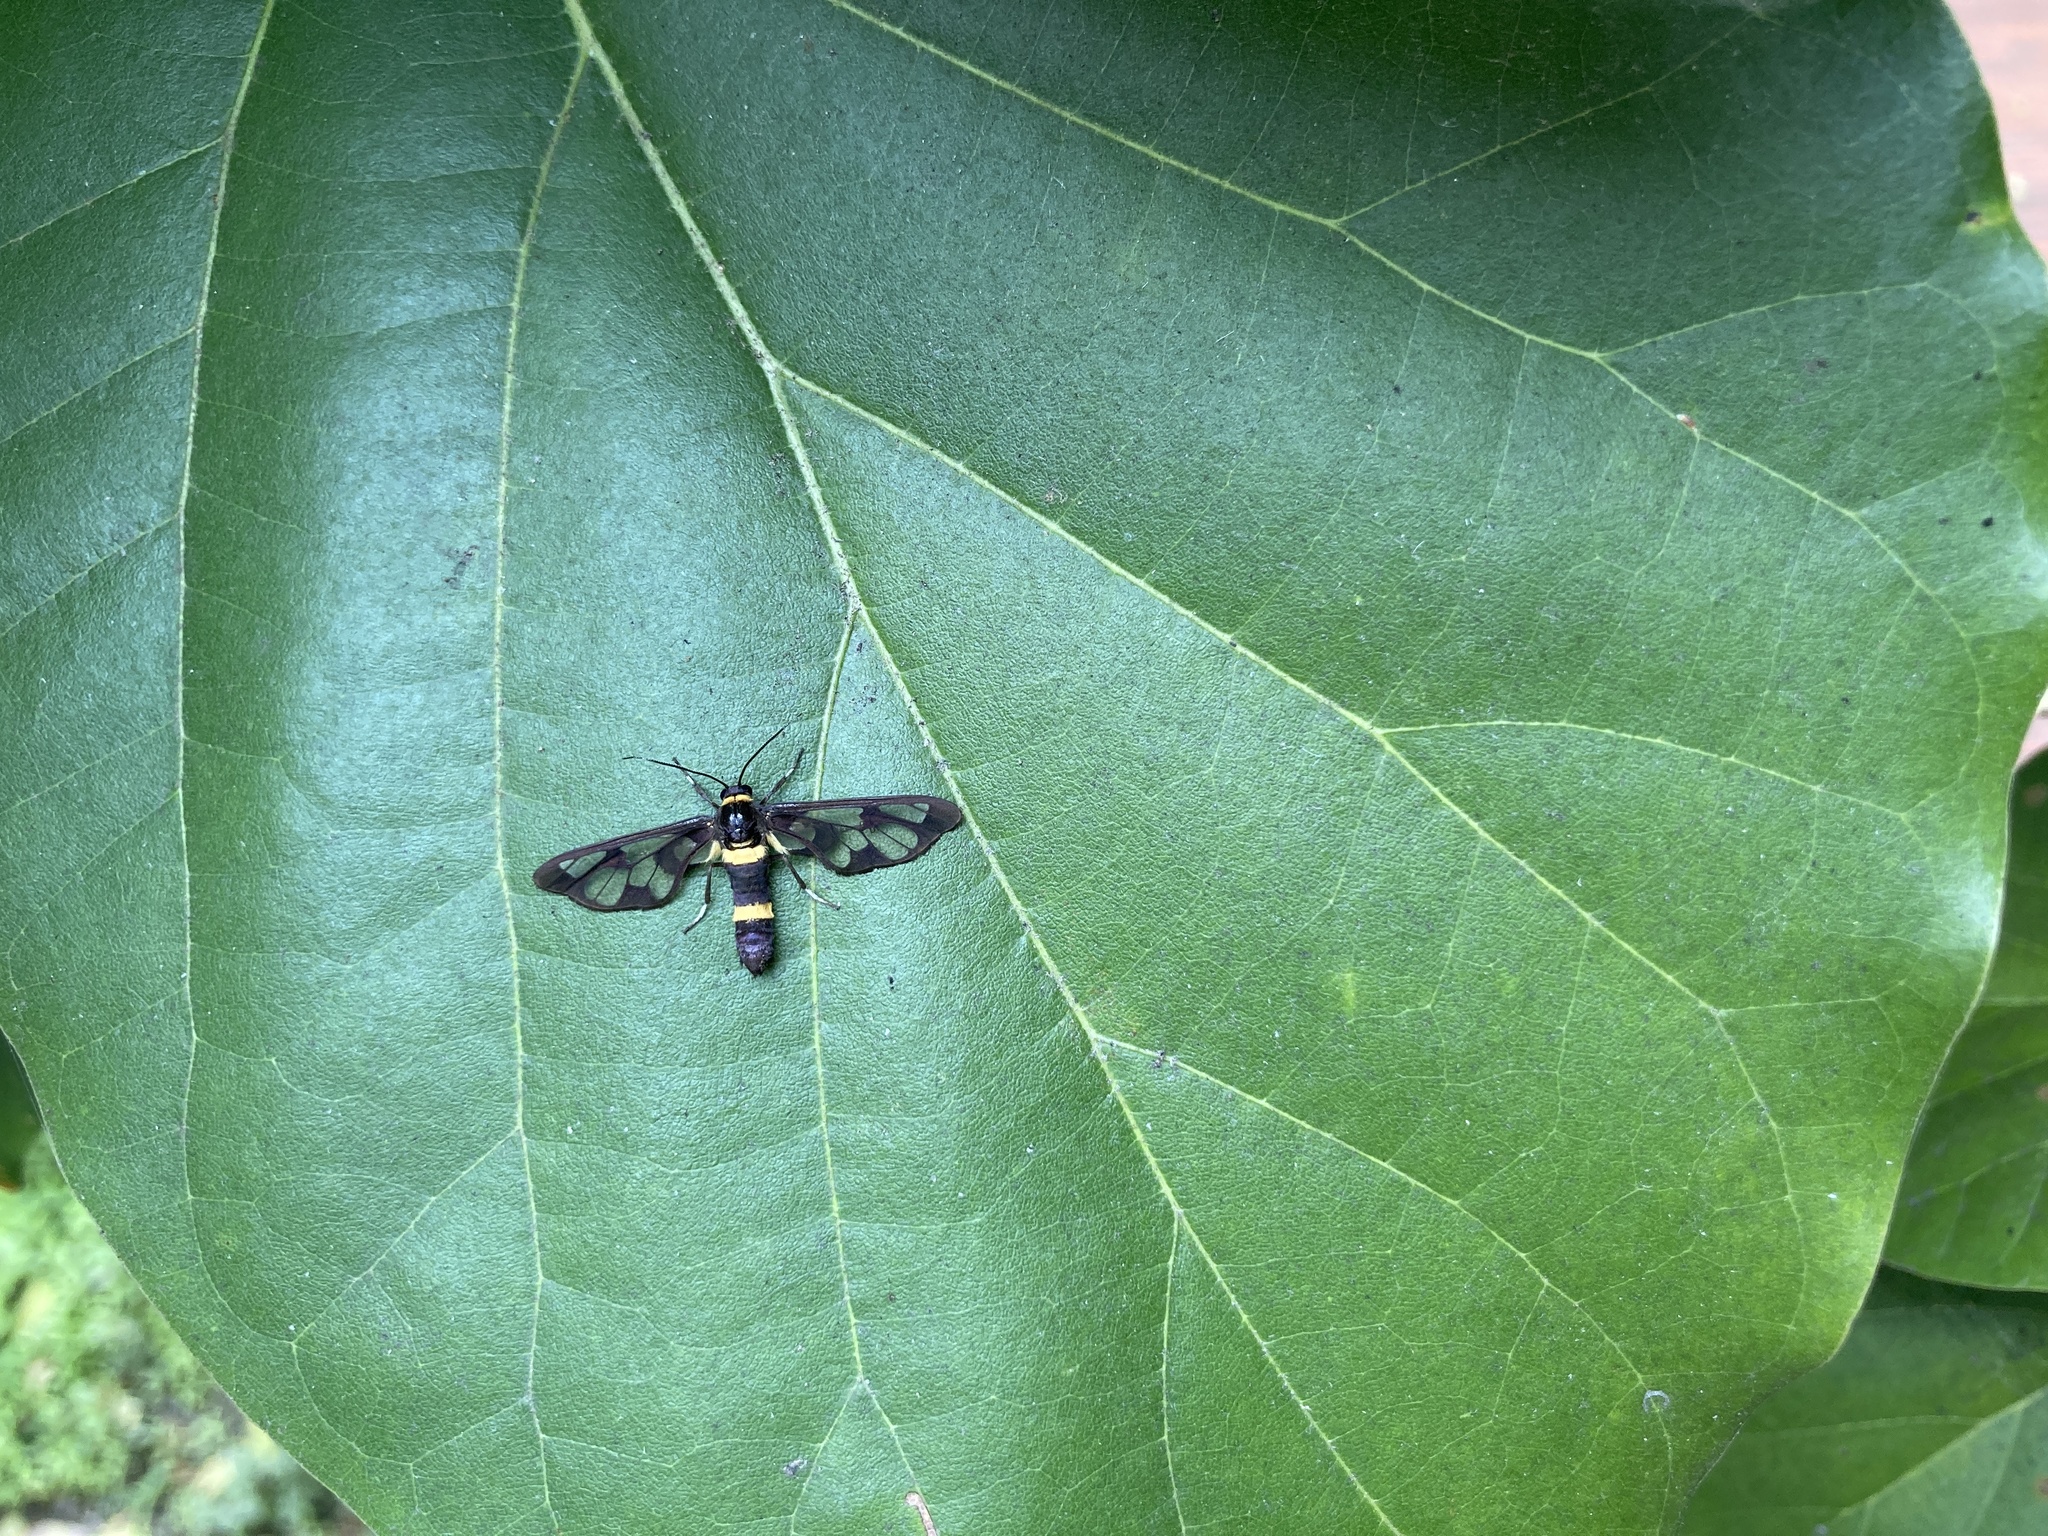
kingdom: Animalia
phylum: Arthropoda
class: Insecta
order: Lepidoptera
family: Erebidae
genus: Syntomoides
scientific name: Syntomoides imaon
